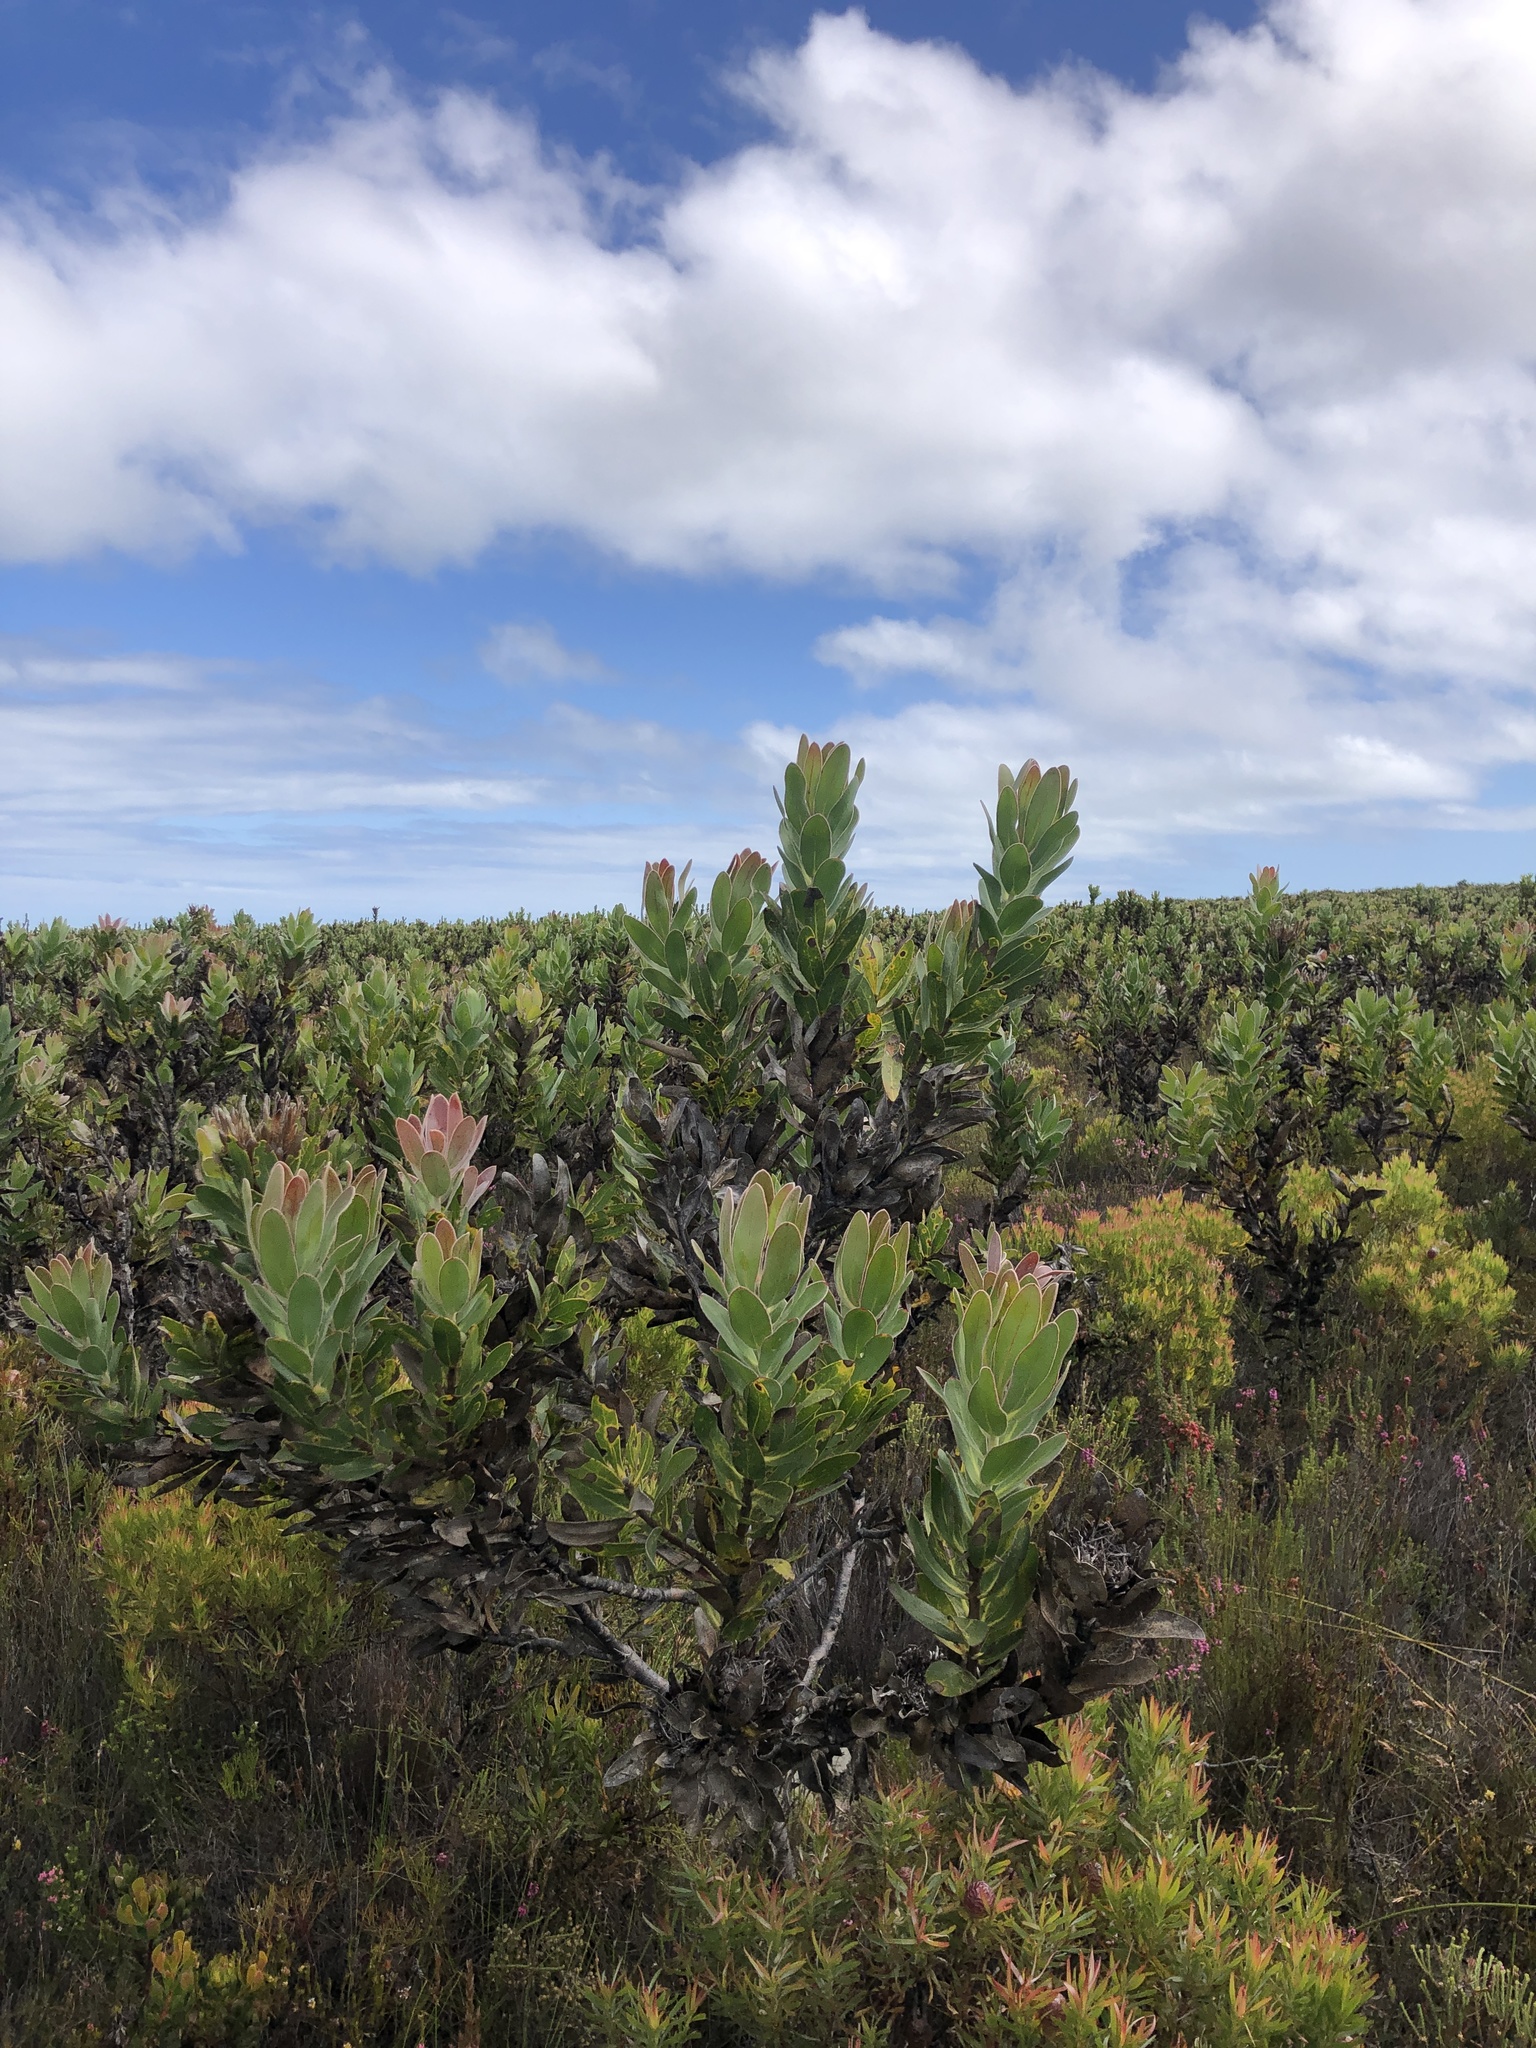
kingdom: Plantae
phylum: Tracheophyta
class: Magnoliopsida
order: Proteales
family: Proteaceae
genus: Protea
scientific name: Protea compacta
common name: Bot river protea
